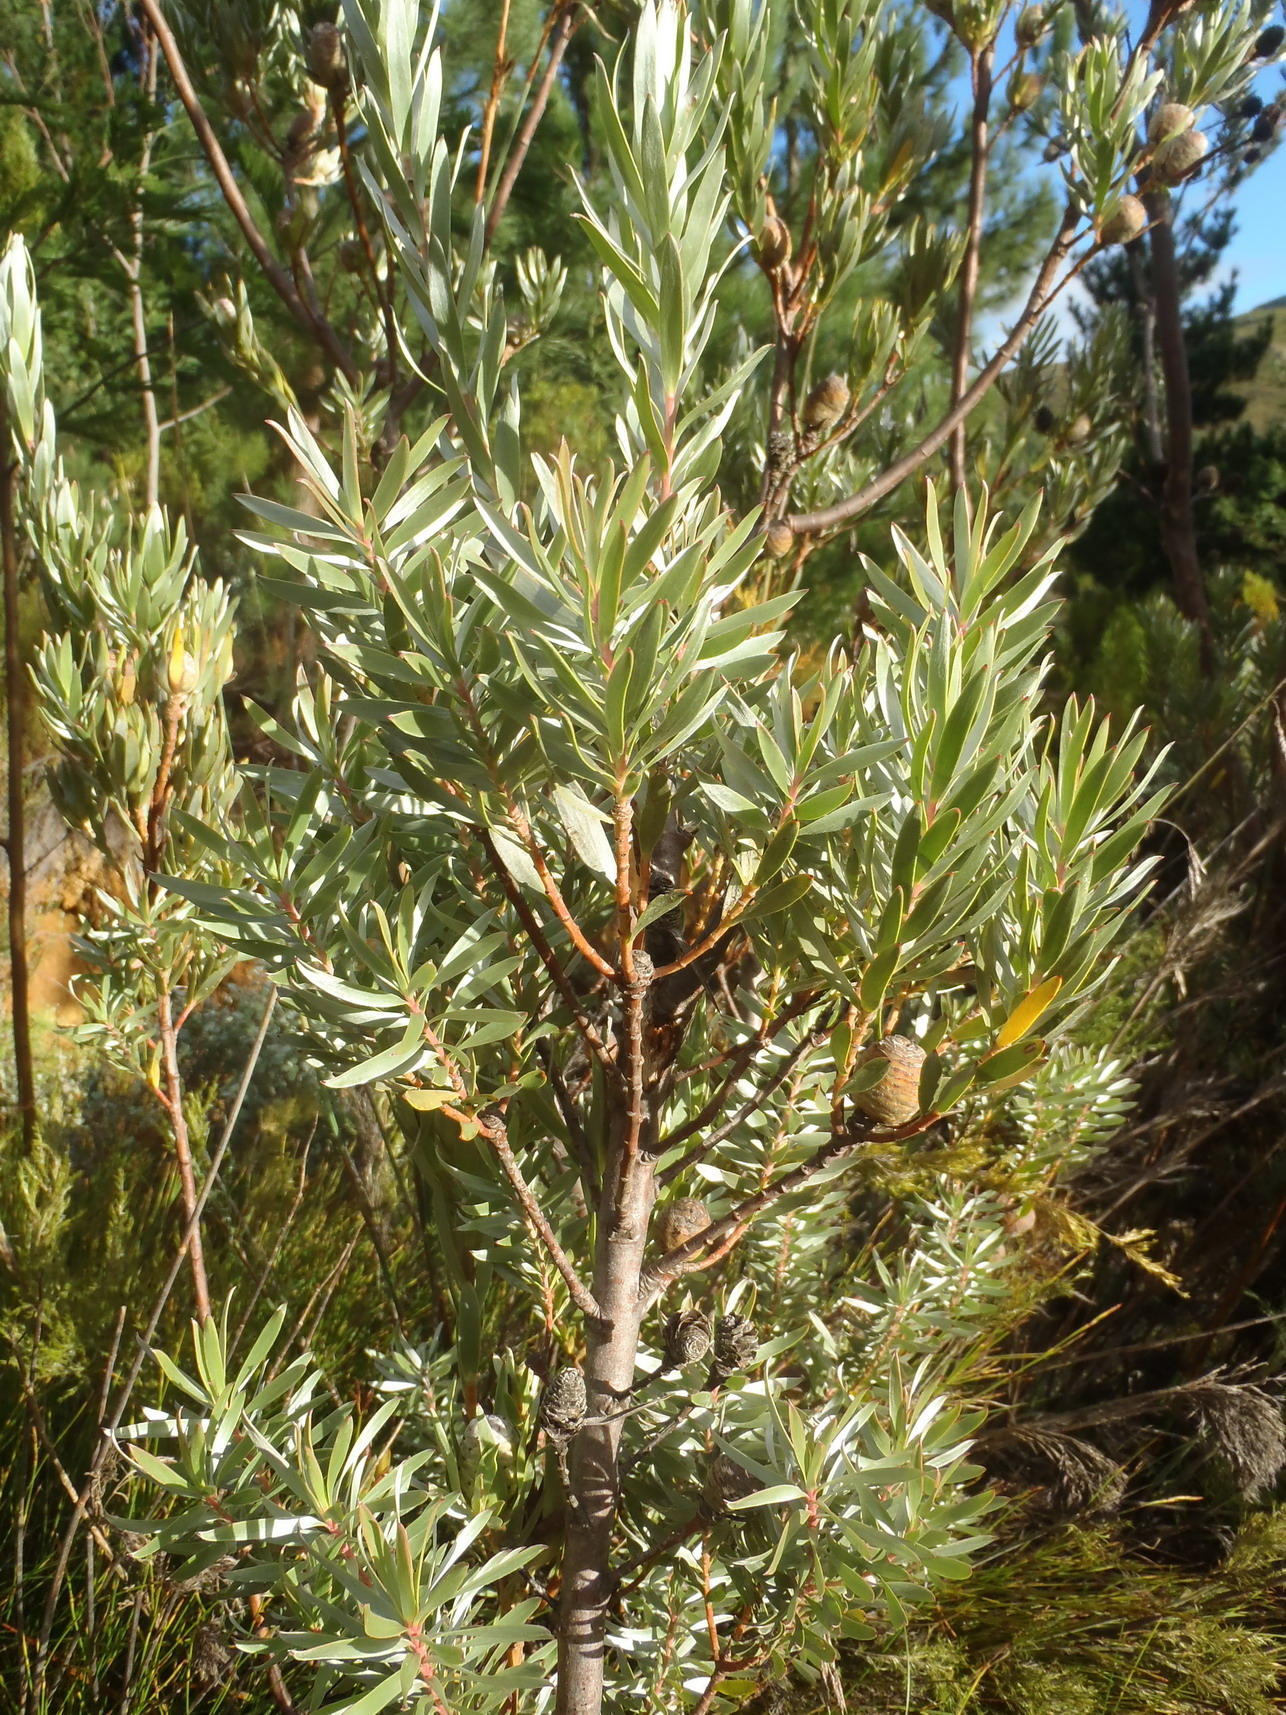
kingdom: Plantae
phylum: Tracheophyta
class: Magnoliopsida
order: Proteales
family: Proteaceae
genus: Leucadendron
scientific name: Leucadendron uliginosum
